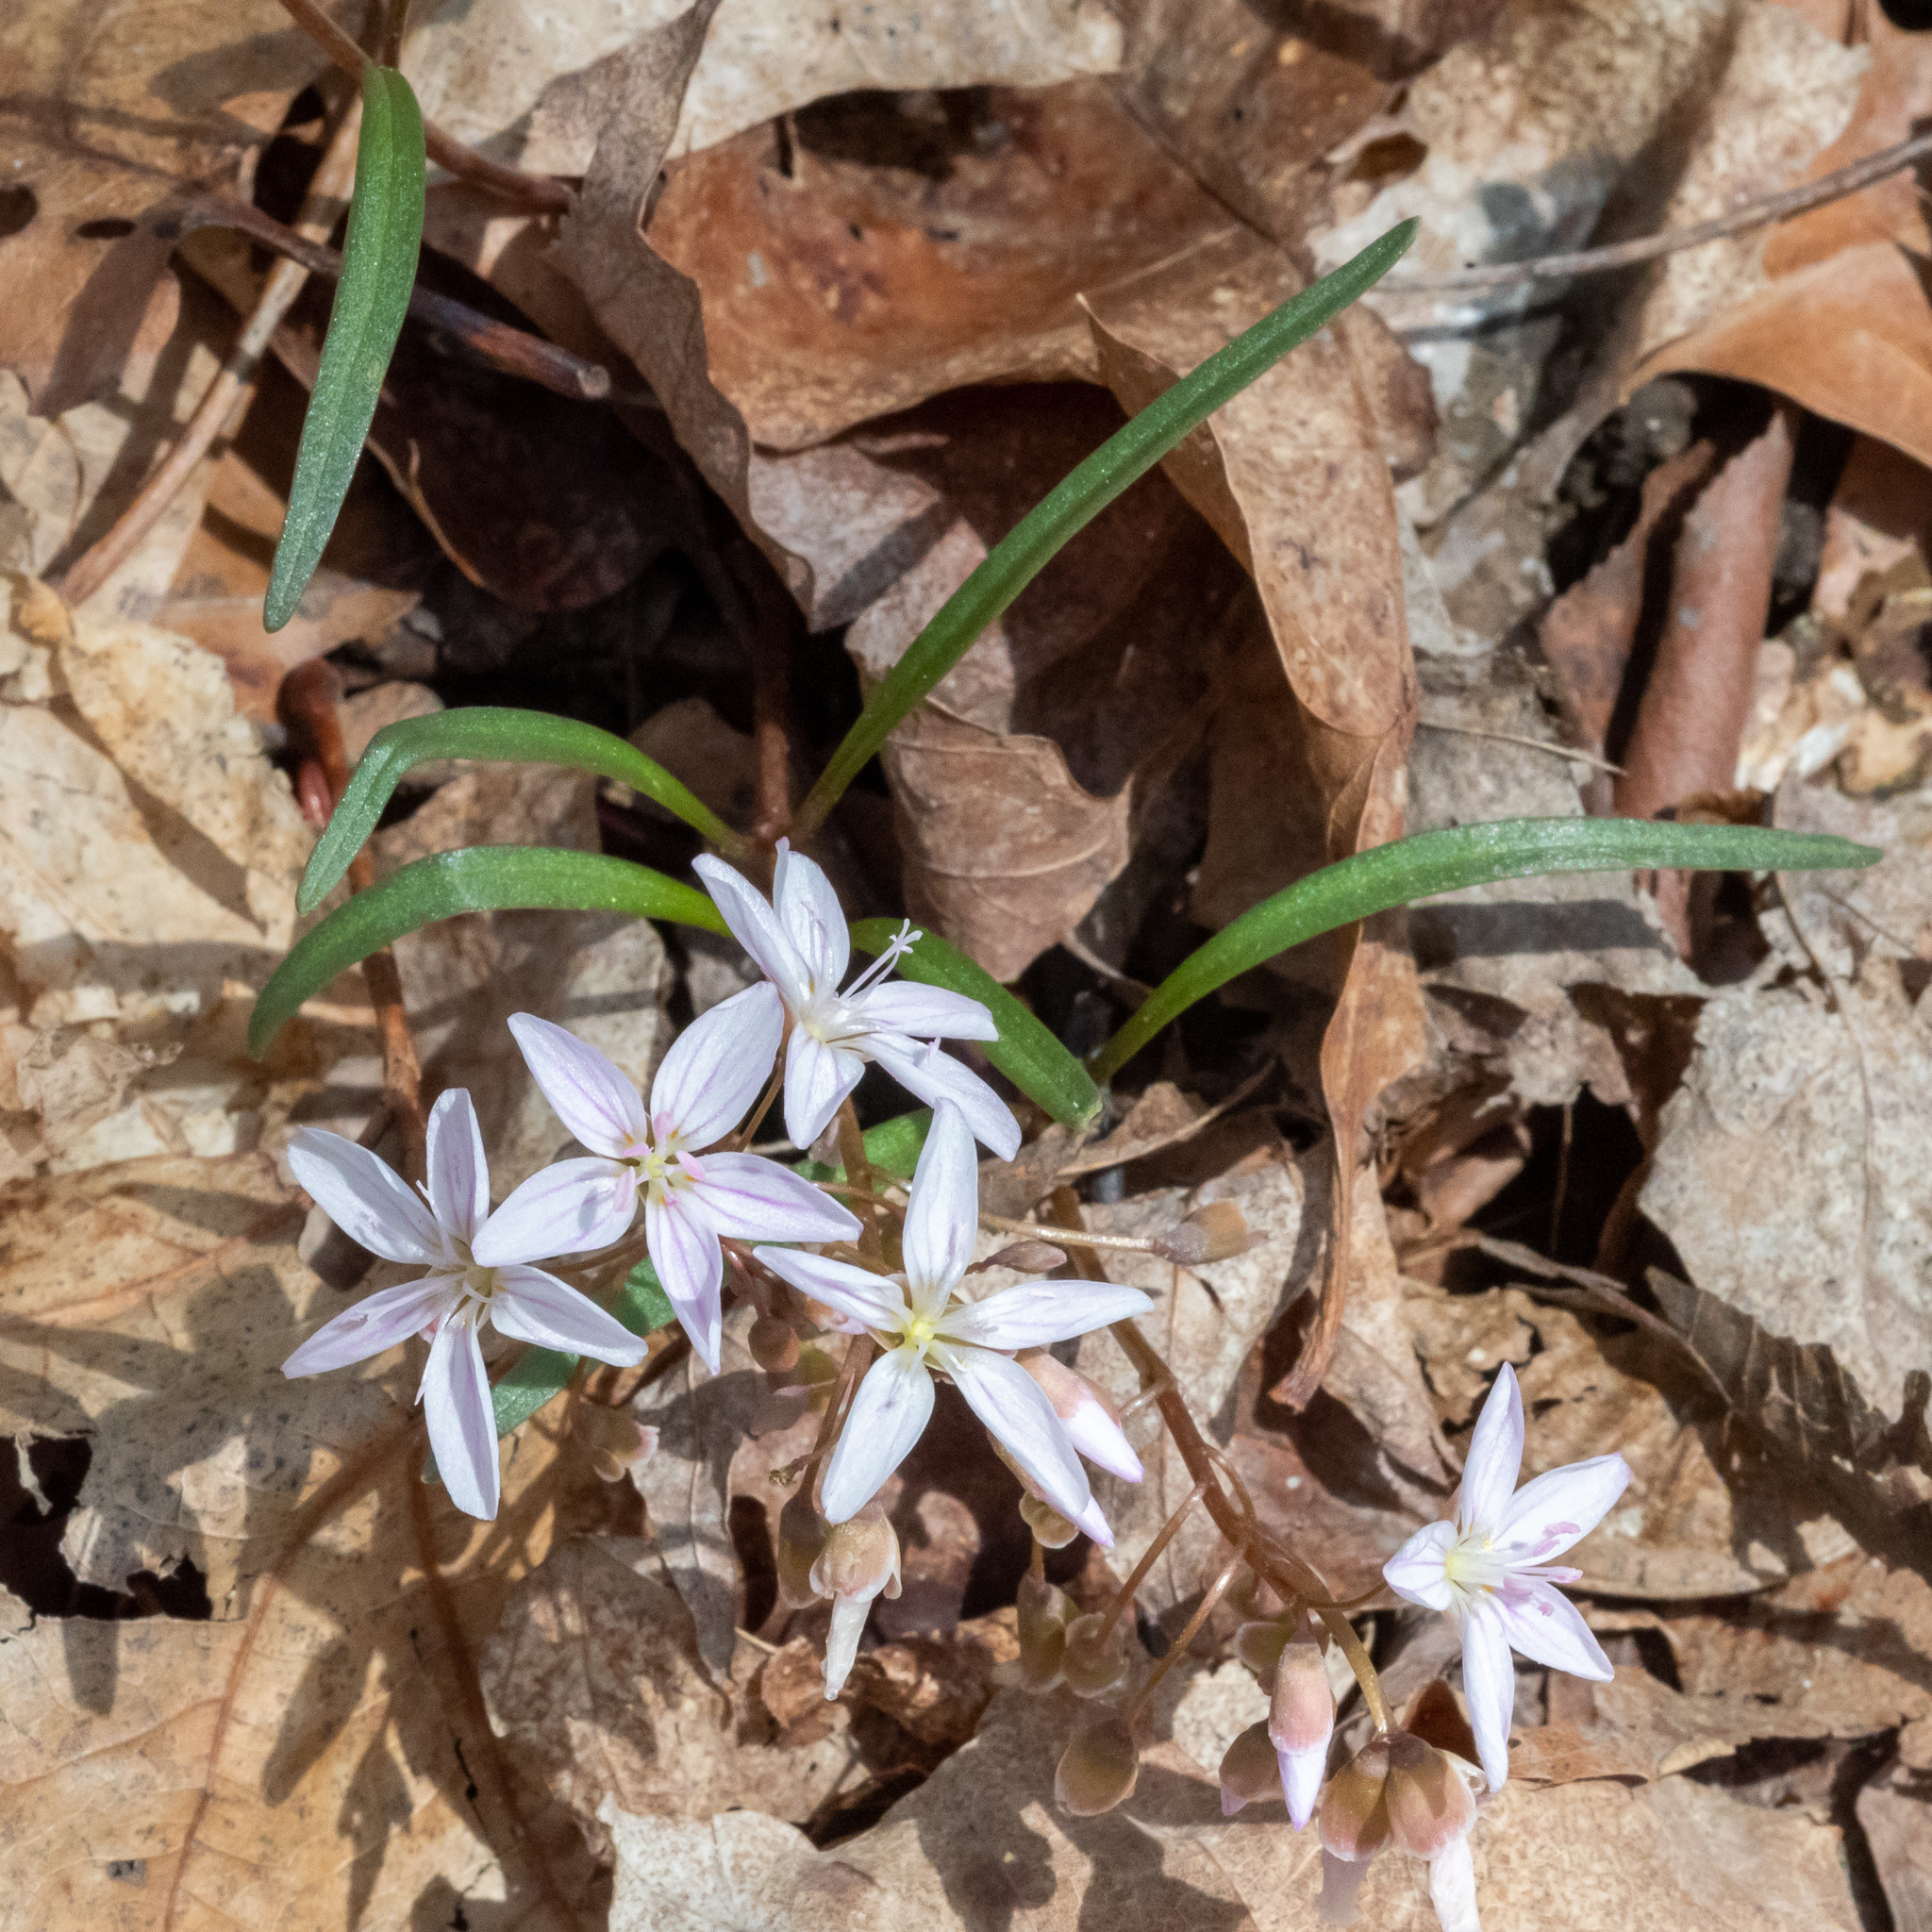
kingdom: Plantae
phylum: Tracheophyta
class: Magnoliopsida
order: Caryophyllales
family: Montiaceae
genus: Claytonia
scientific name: Claytonia virginica
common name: Virginia springbeauty
